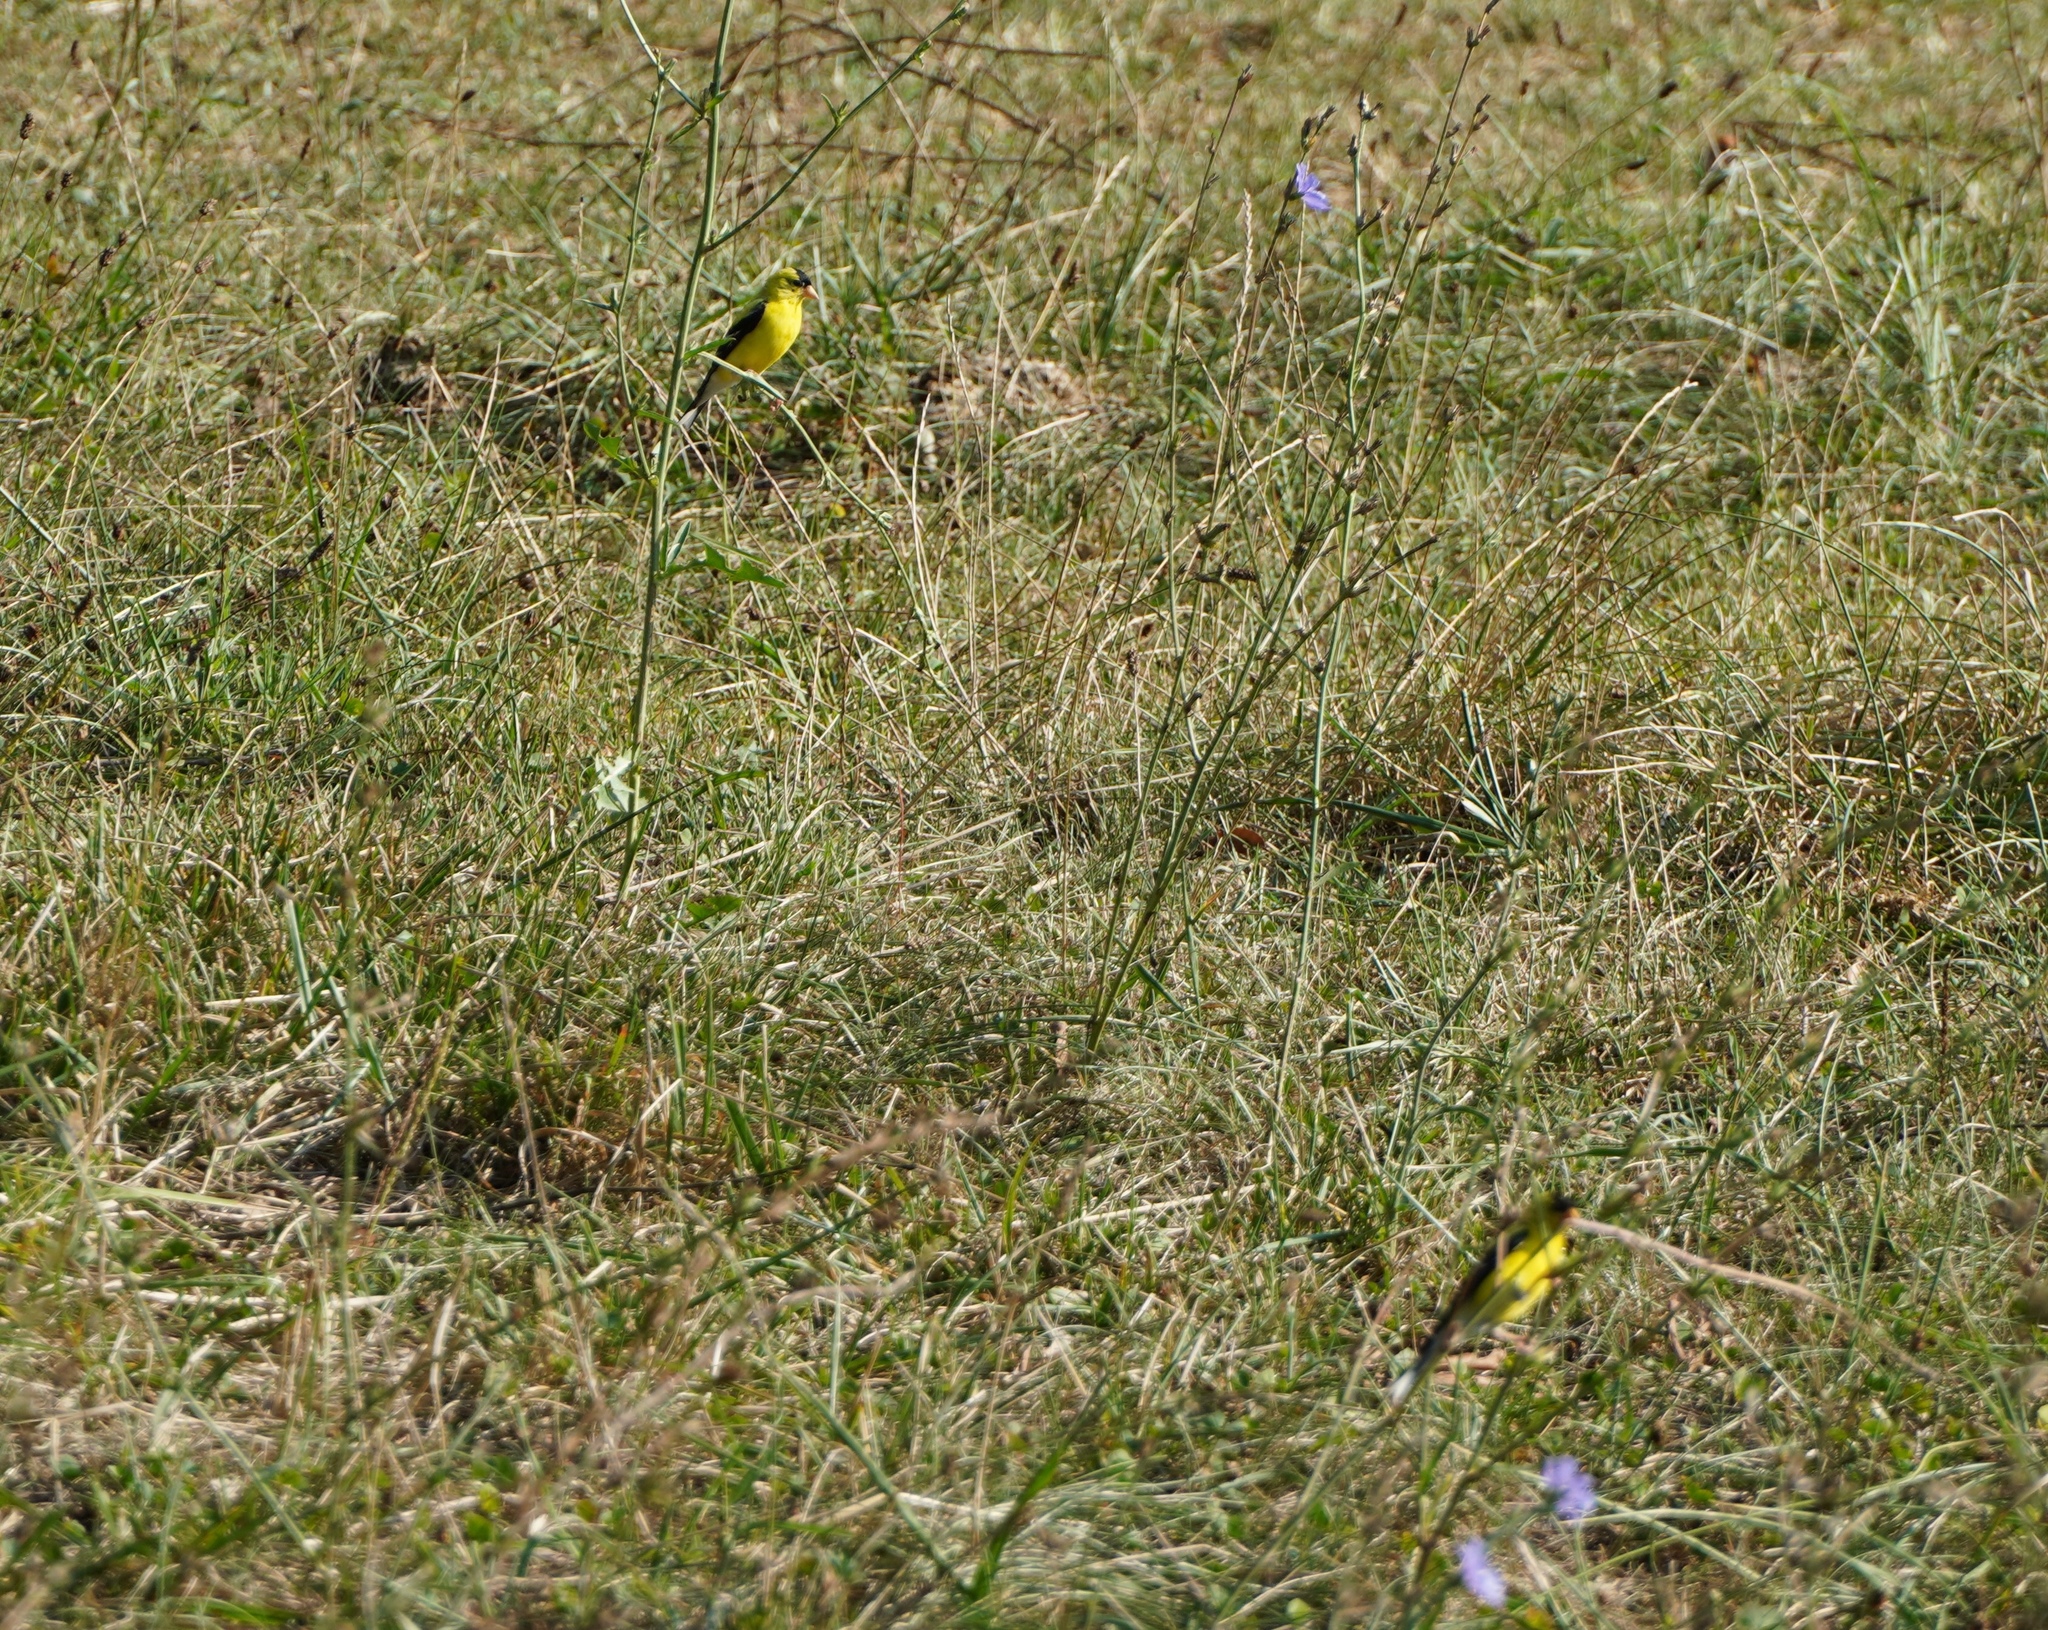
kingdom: Animalia
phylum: Chordata
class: Aves
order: Passeriformes
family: Fringillidae
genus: Spinus
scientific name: Spinus tristis
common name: American goldfinch
